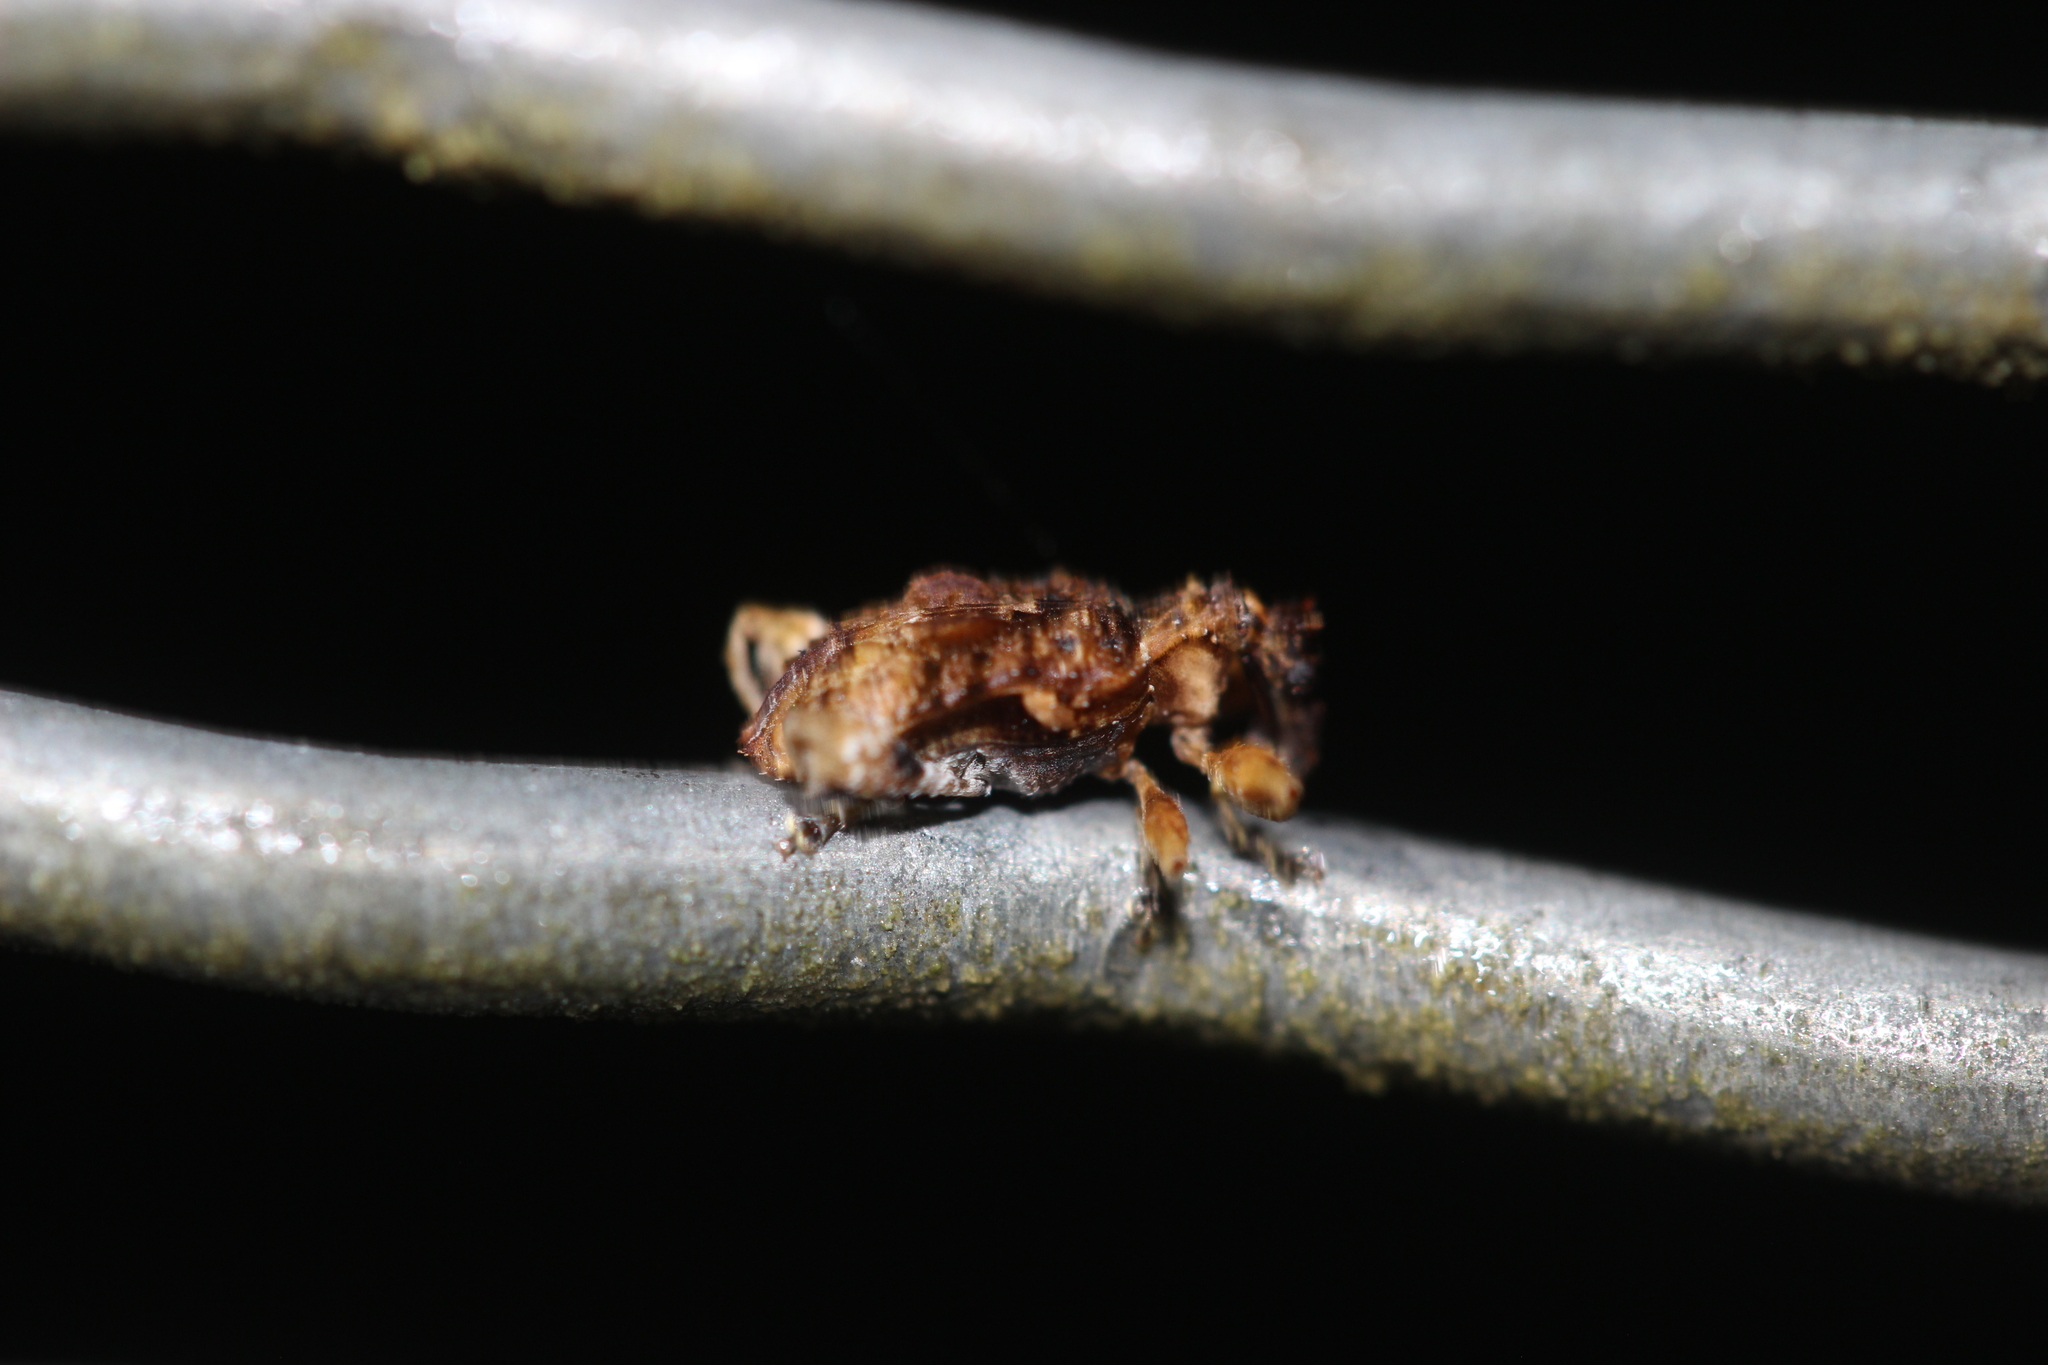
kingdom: Animalia
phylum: Arthropoda
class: Insecta
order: Coleoptera
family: Curculionidae
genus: Stephanorhynchus
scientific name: Stephanorhynchus curvipes
